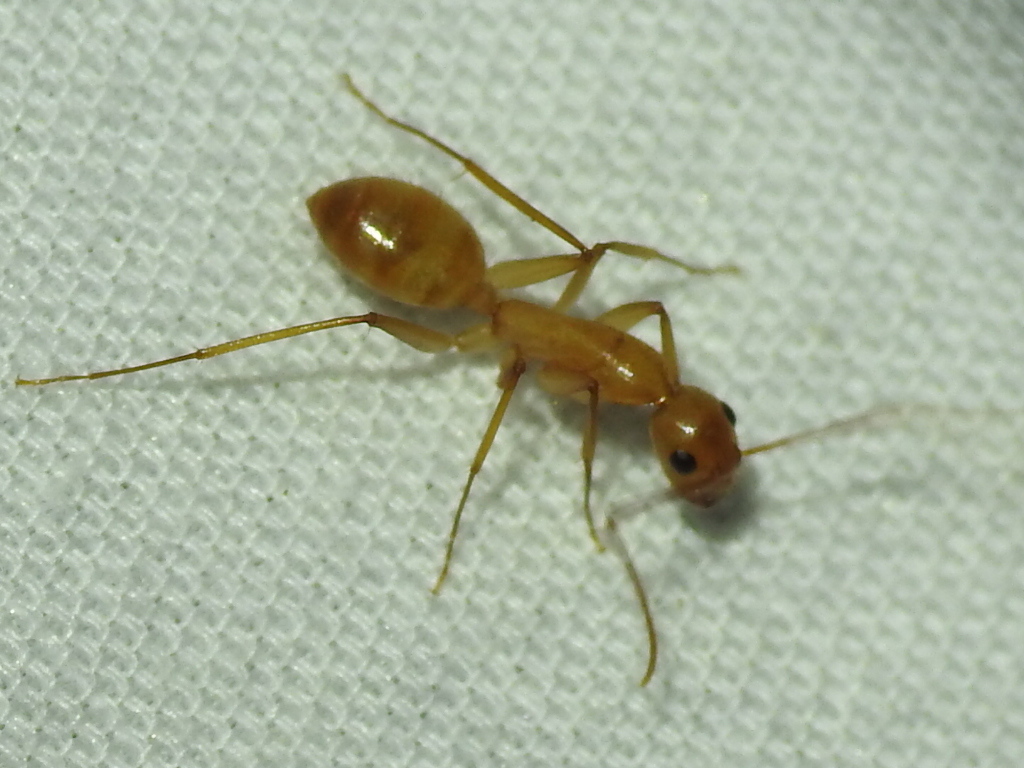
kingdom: Animalia
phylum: Arthropoda
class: Insecta
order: Hymenoptera
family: Formicidae
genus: Camponotus
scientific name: Camponotus festinatus
